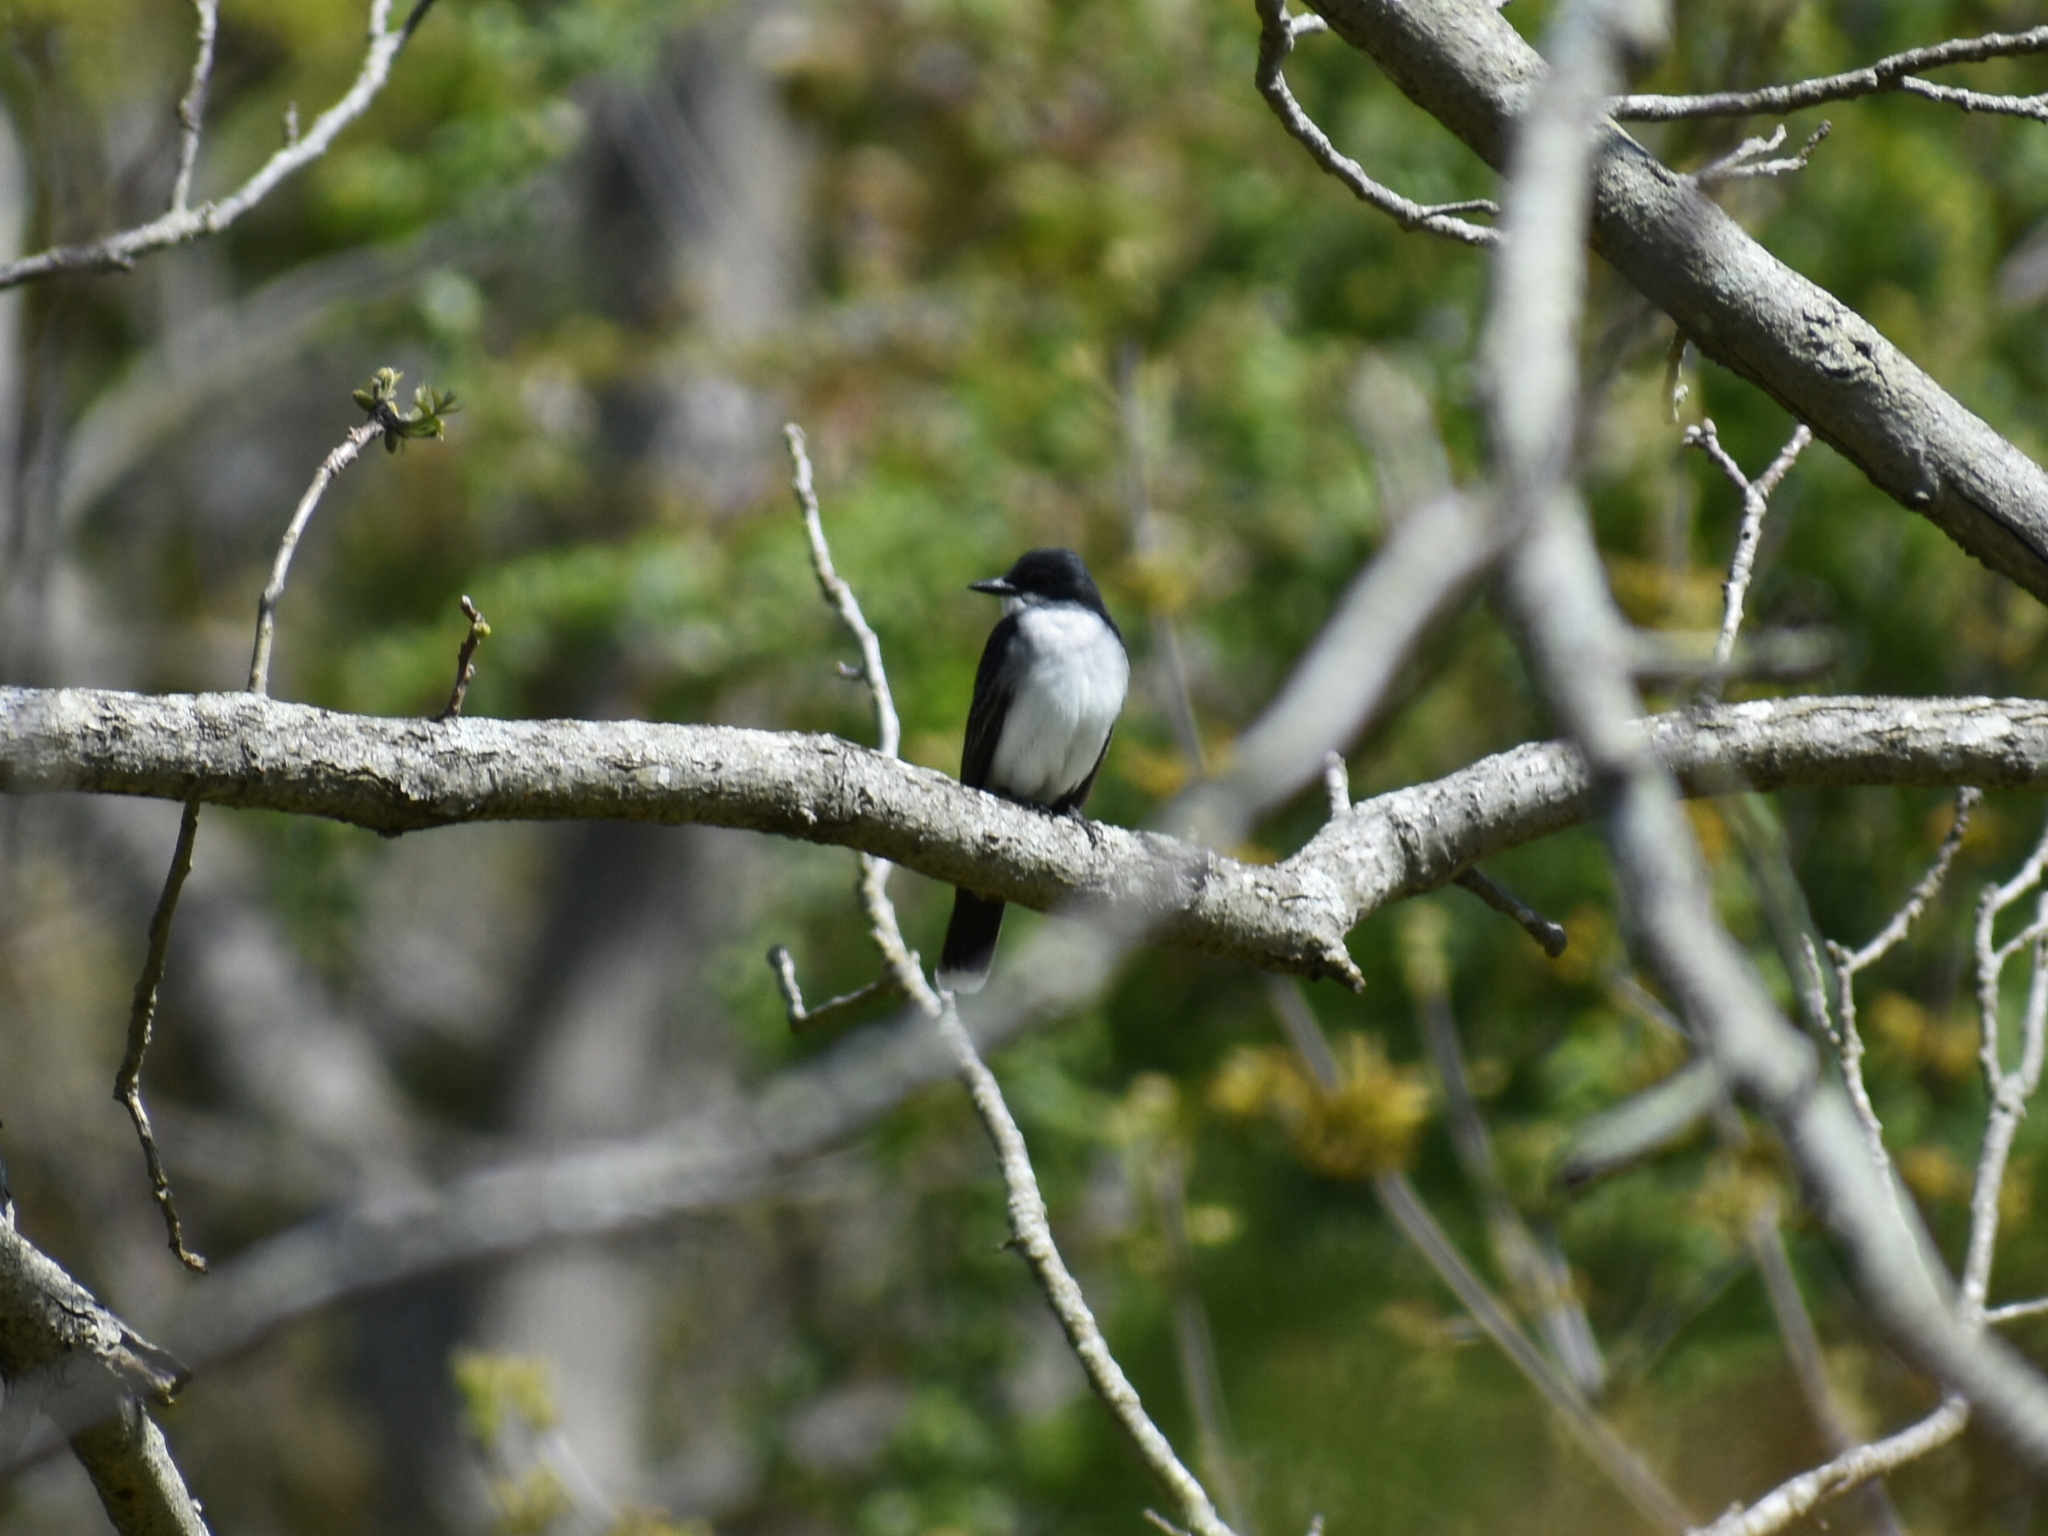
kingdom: Animalia
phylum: Chordata
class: Aves
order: Passeriformes
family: Tyrannidae
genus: Tyrannus
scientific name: Tyrannus tyrannus
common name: Eastern kingbird
